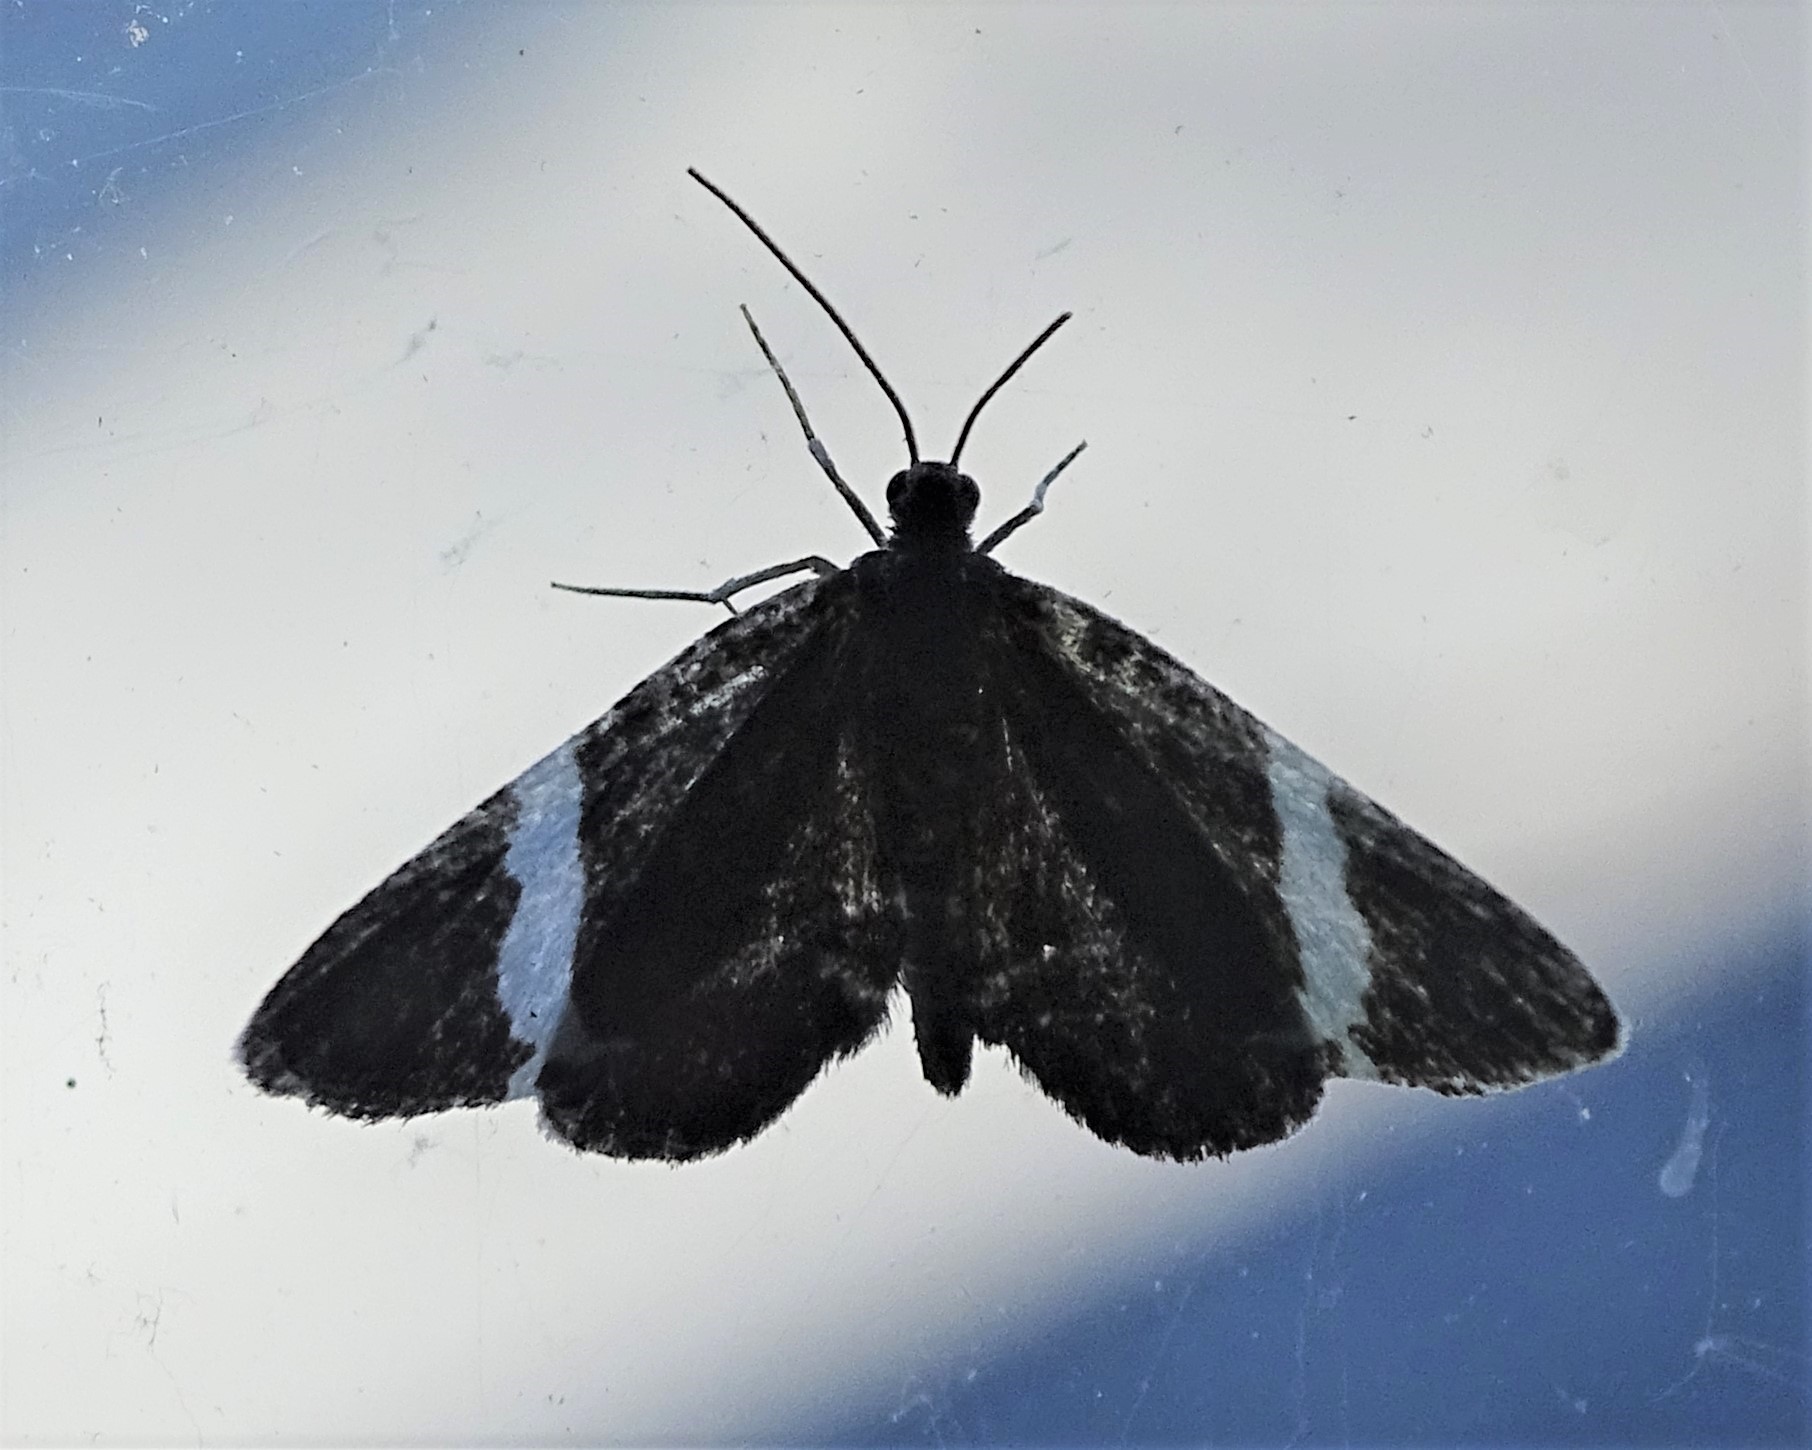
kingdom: Animalia
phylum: Arthropoda
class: Insecta
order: Lepidoptera
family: Geometridae
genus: Trichodezia
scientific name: Trichodezia albovittata
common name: White striped black
